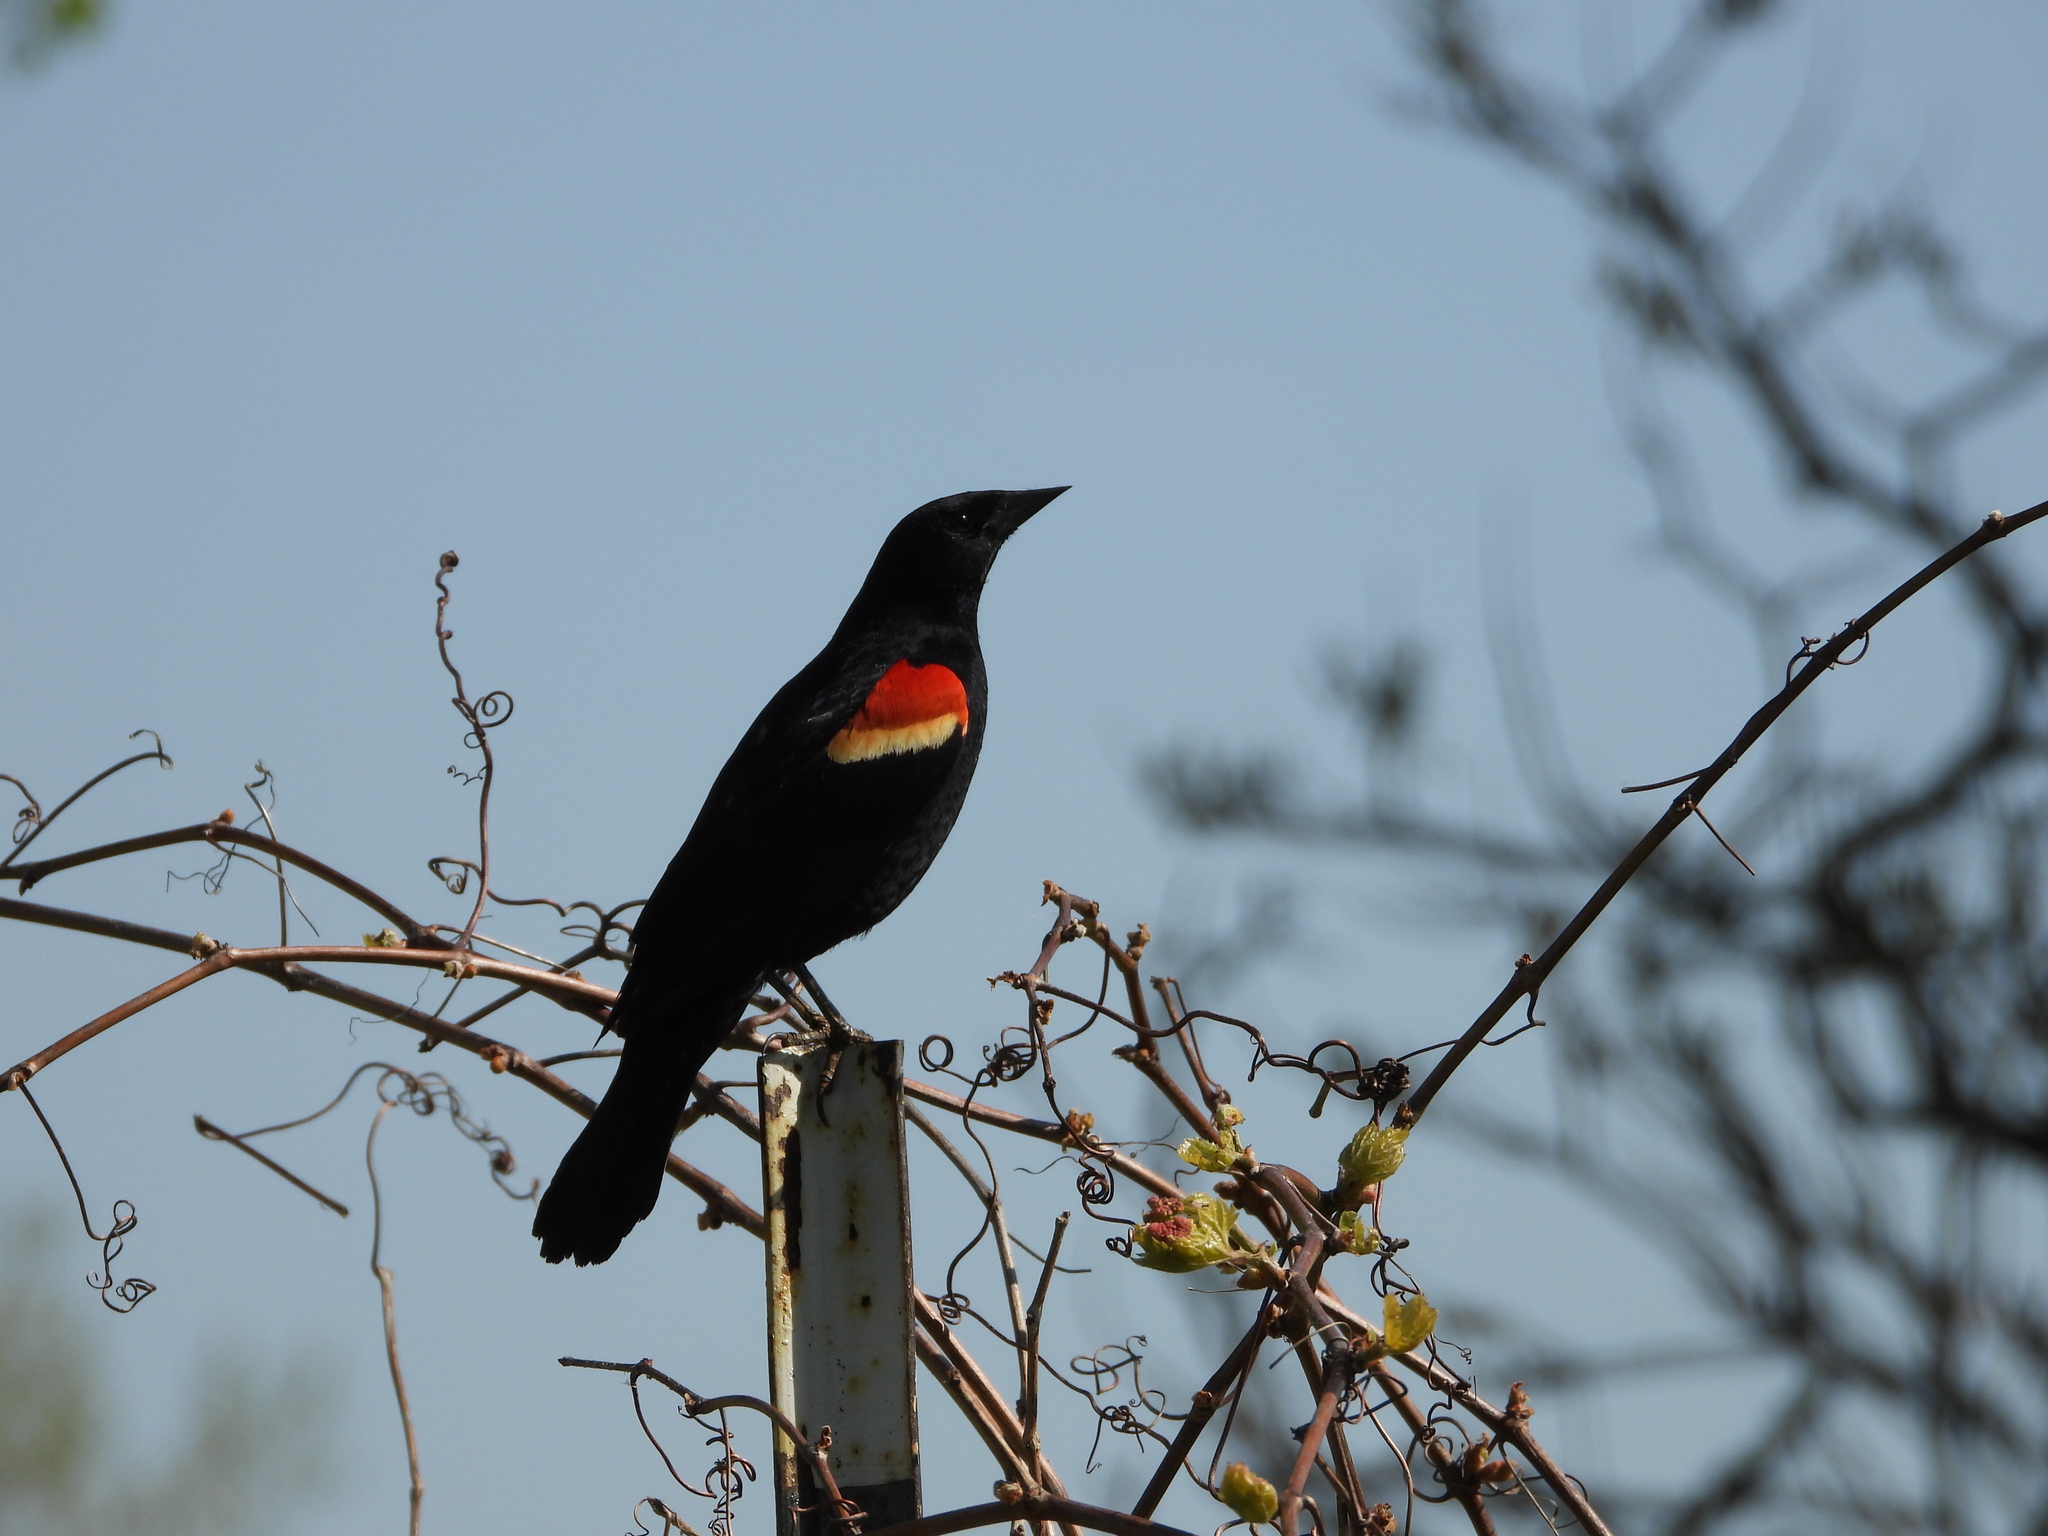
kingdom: Animalia
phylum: Chordata
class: Aves
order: Passeriformes
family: Icteridae
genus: Agelaius
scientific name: Agelaius phoeniceus
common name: Red-winged blackbird
